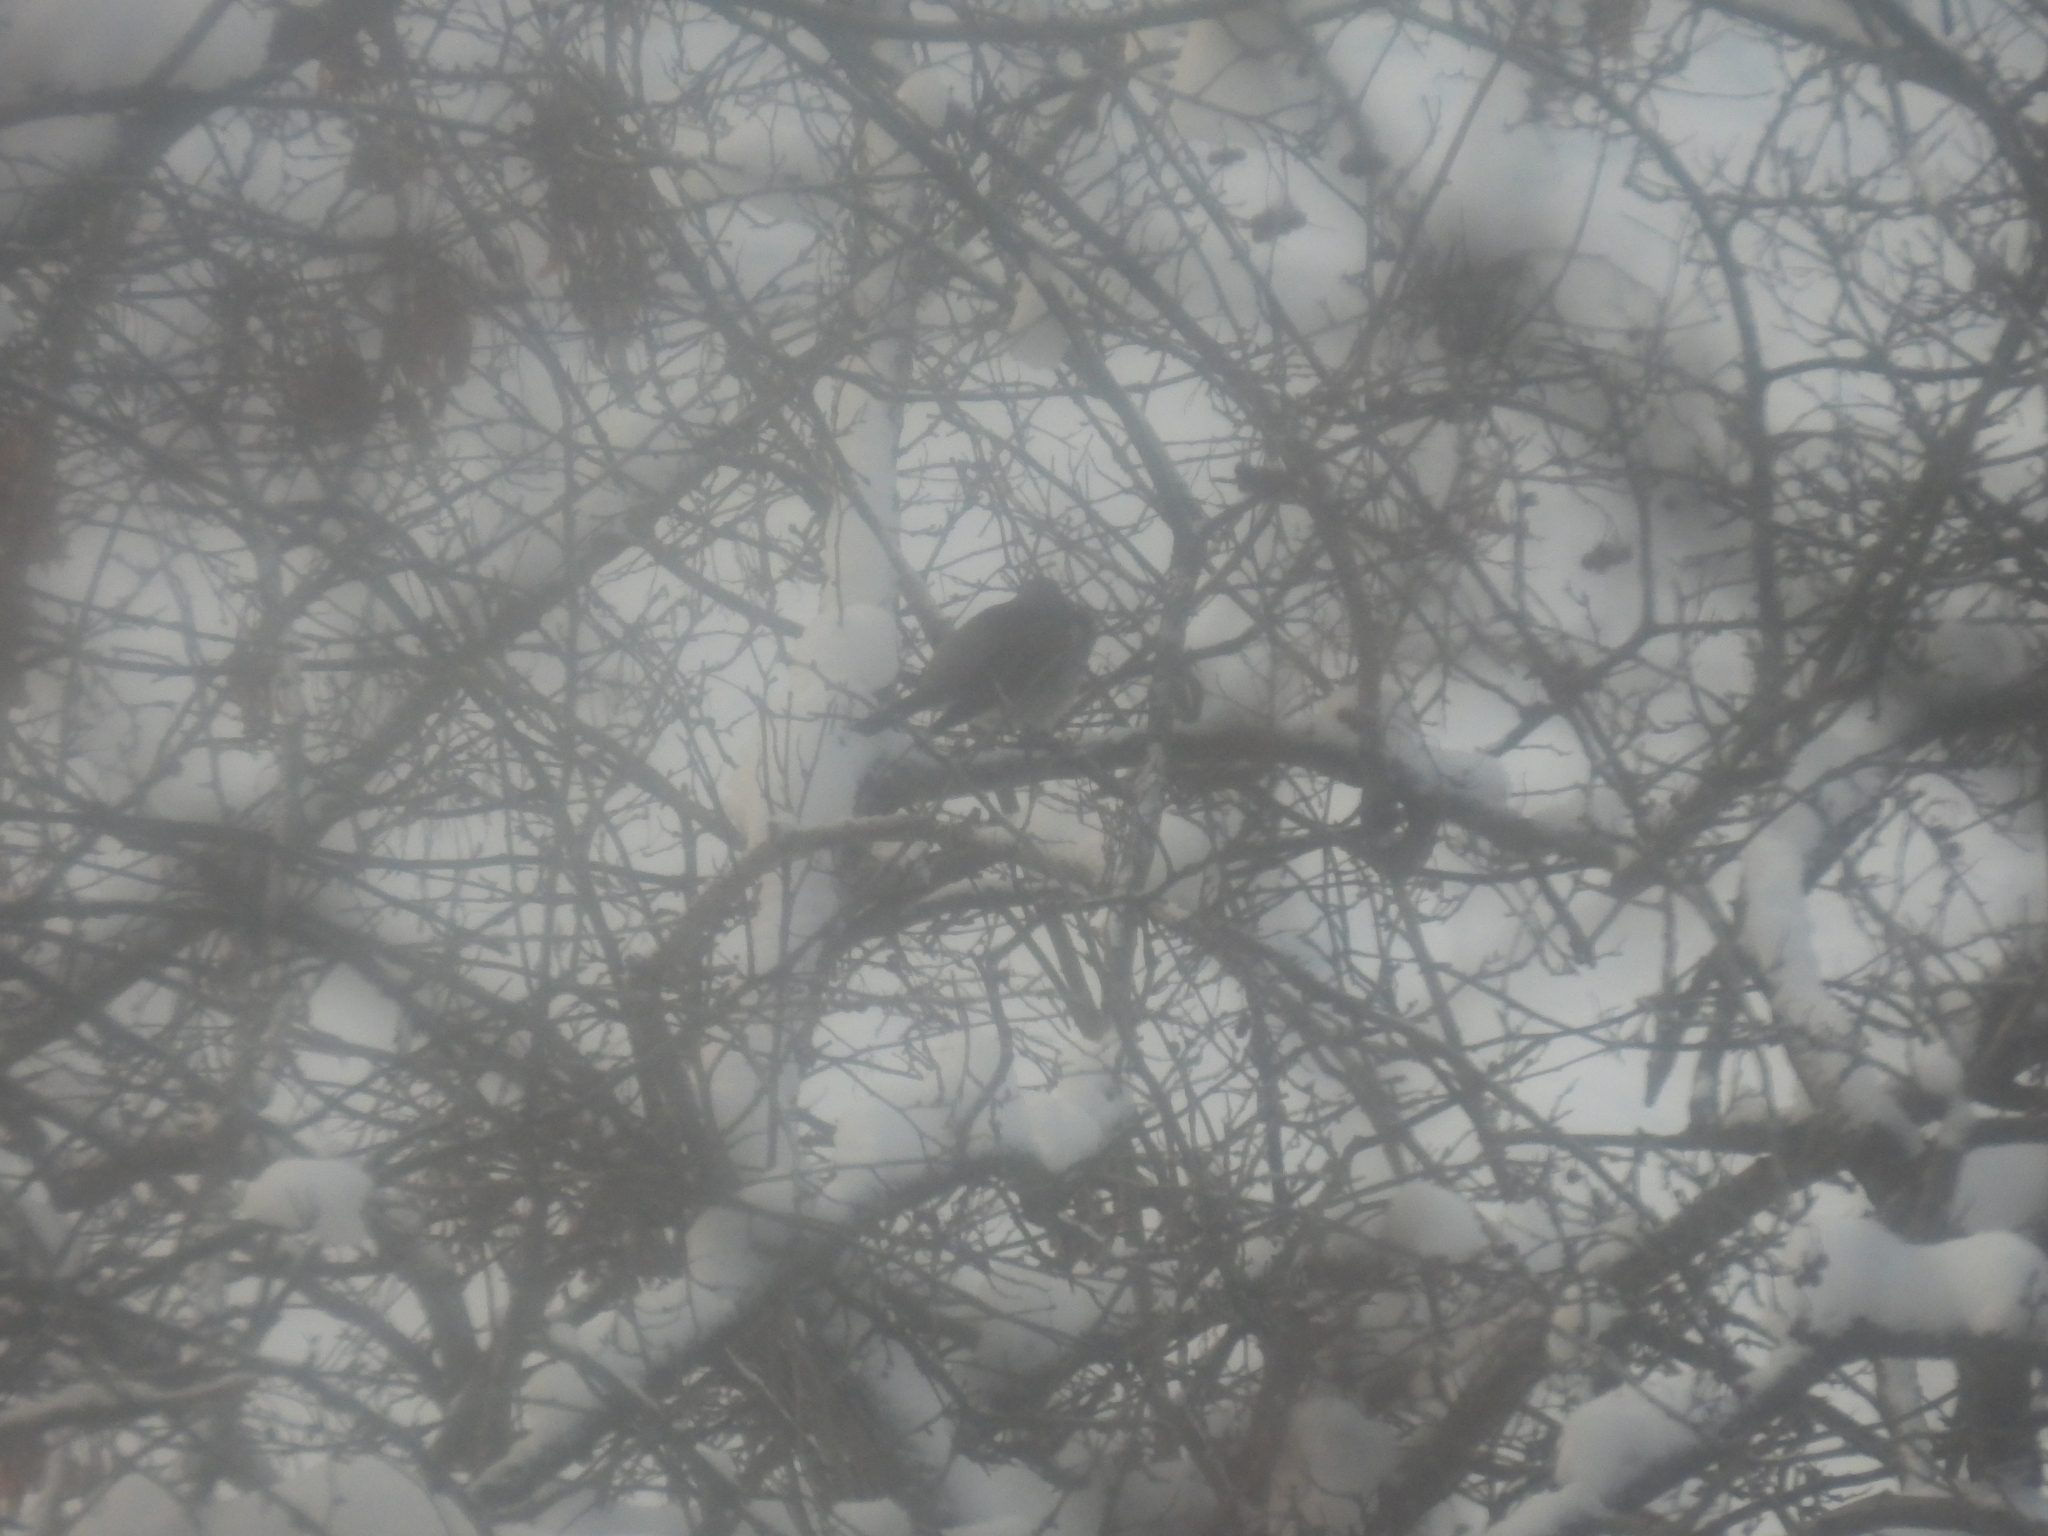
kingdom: Animalia
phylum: Chordata
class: Aves
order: Passeriformes
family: Turdidae
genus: Turdus
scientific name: Turdus pilaris
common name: Fieldfare
